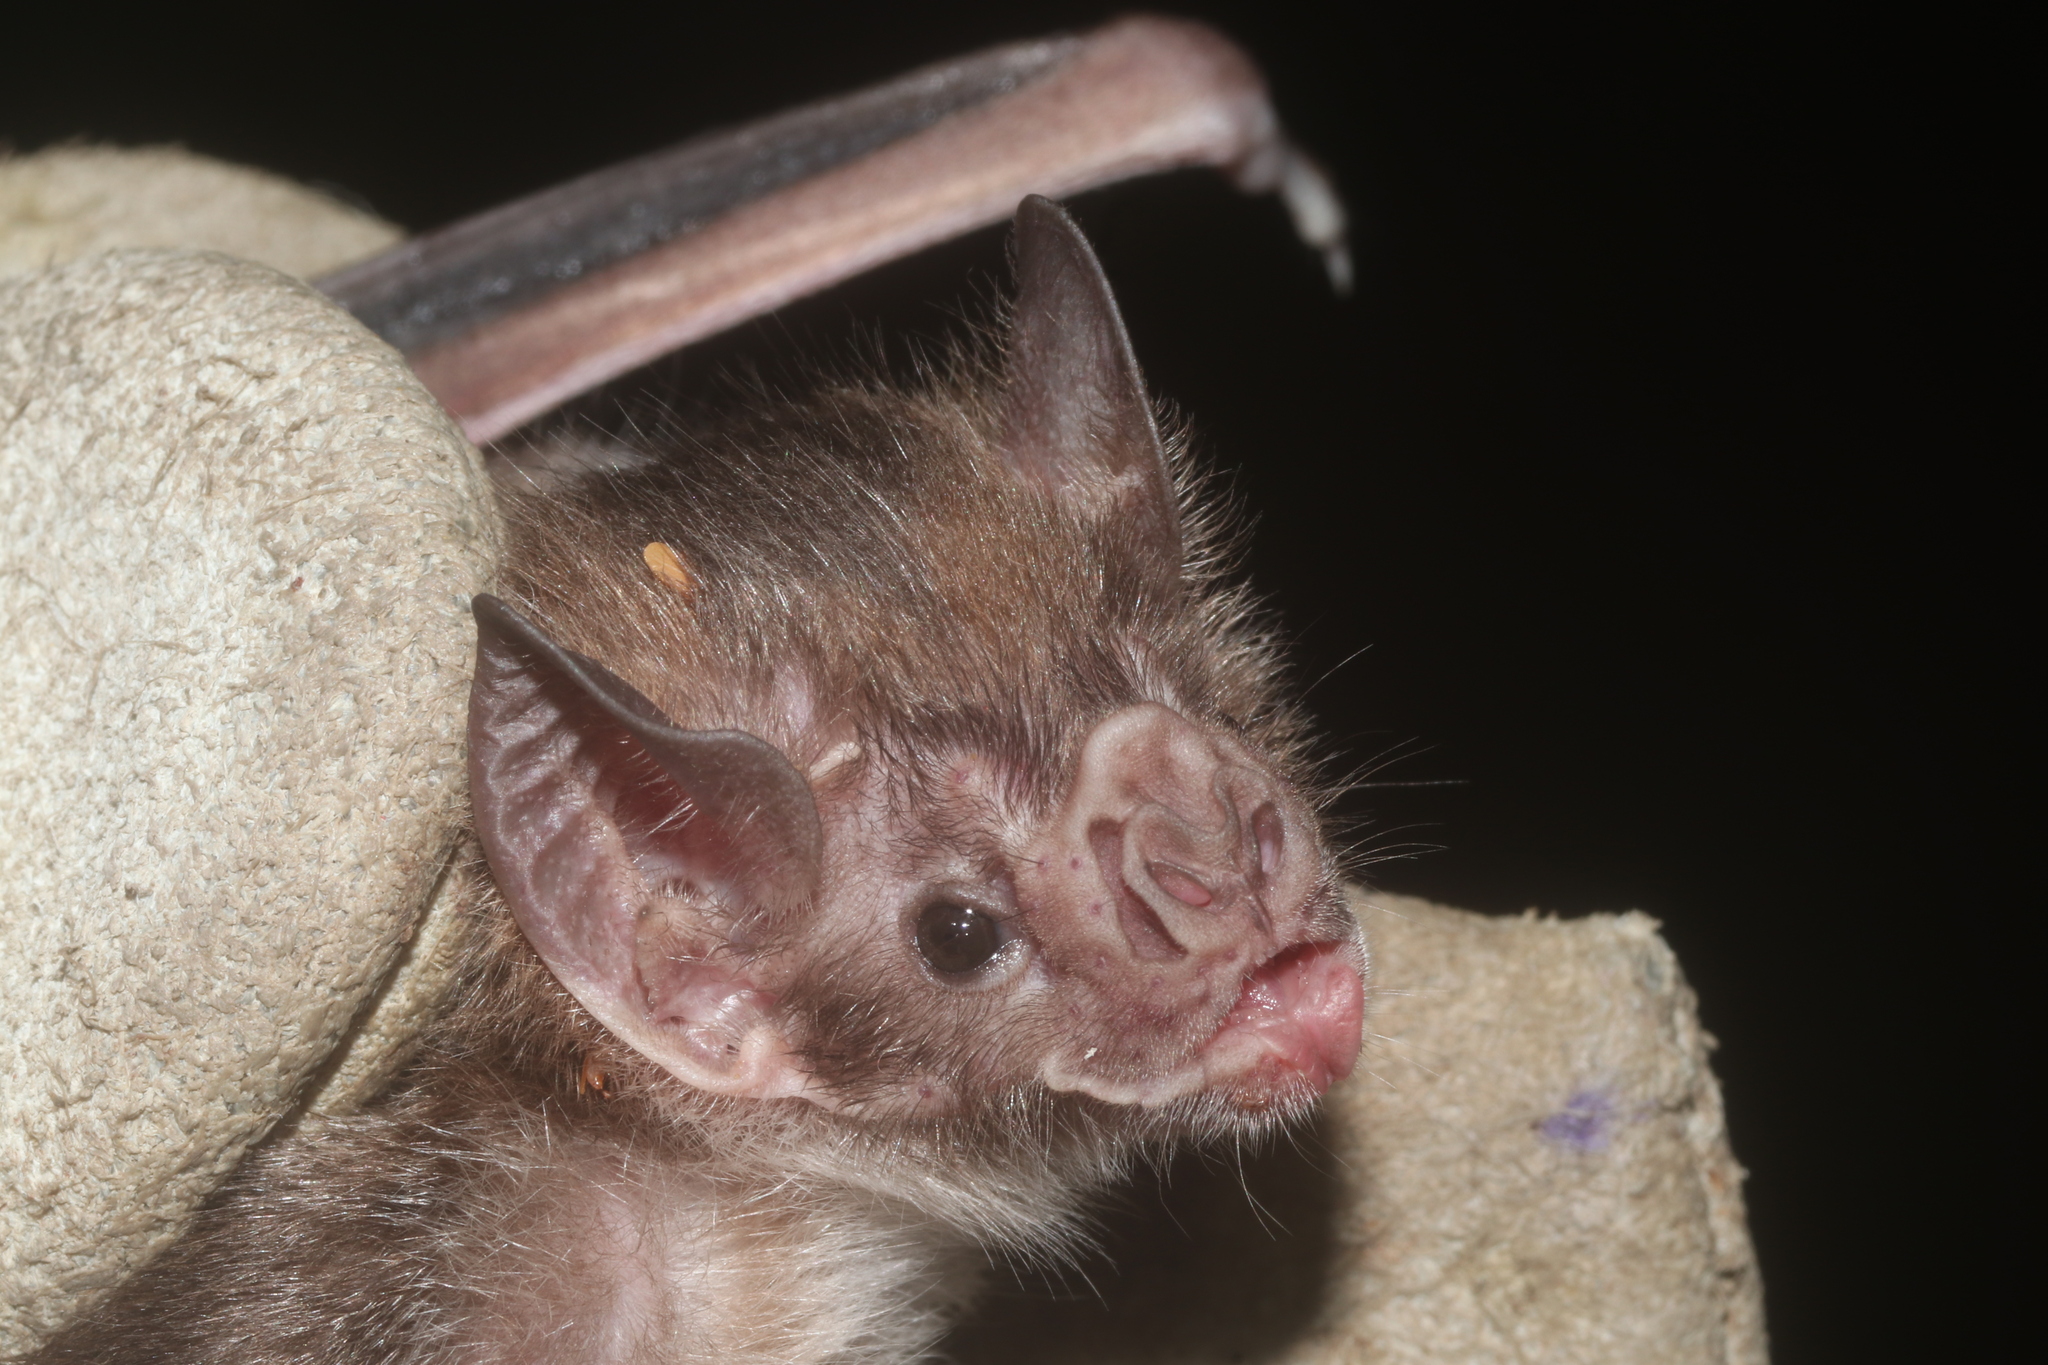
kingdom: Animalia
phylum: Chordata
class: Mammalia
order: Chiroptera
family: Phyllostomidae
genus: Desmodus
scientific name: Desmodus rotundus
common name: Common vampire bat
